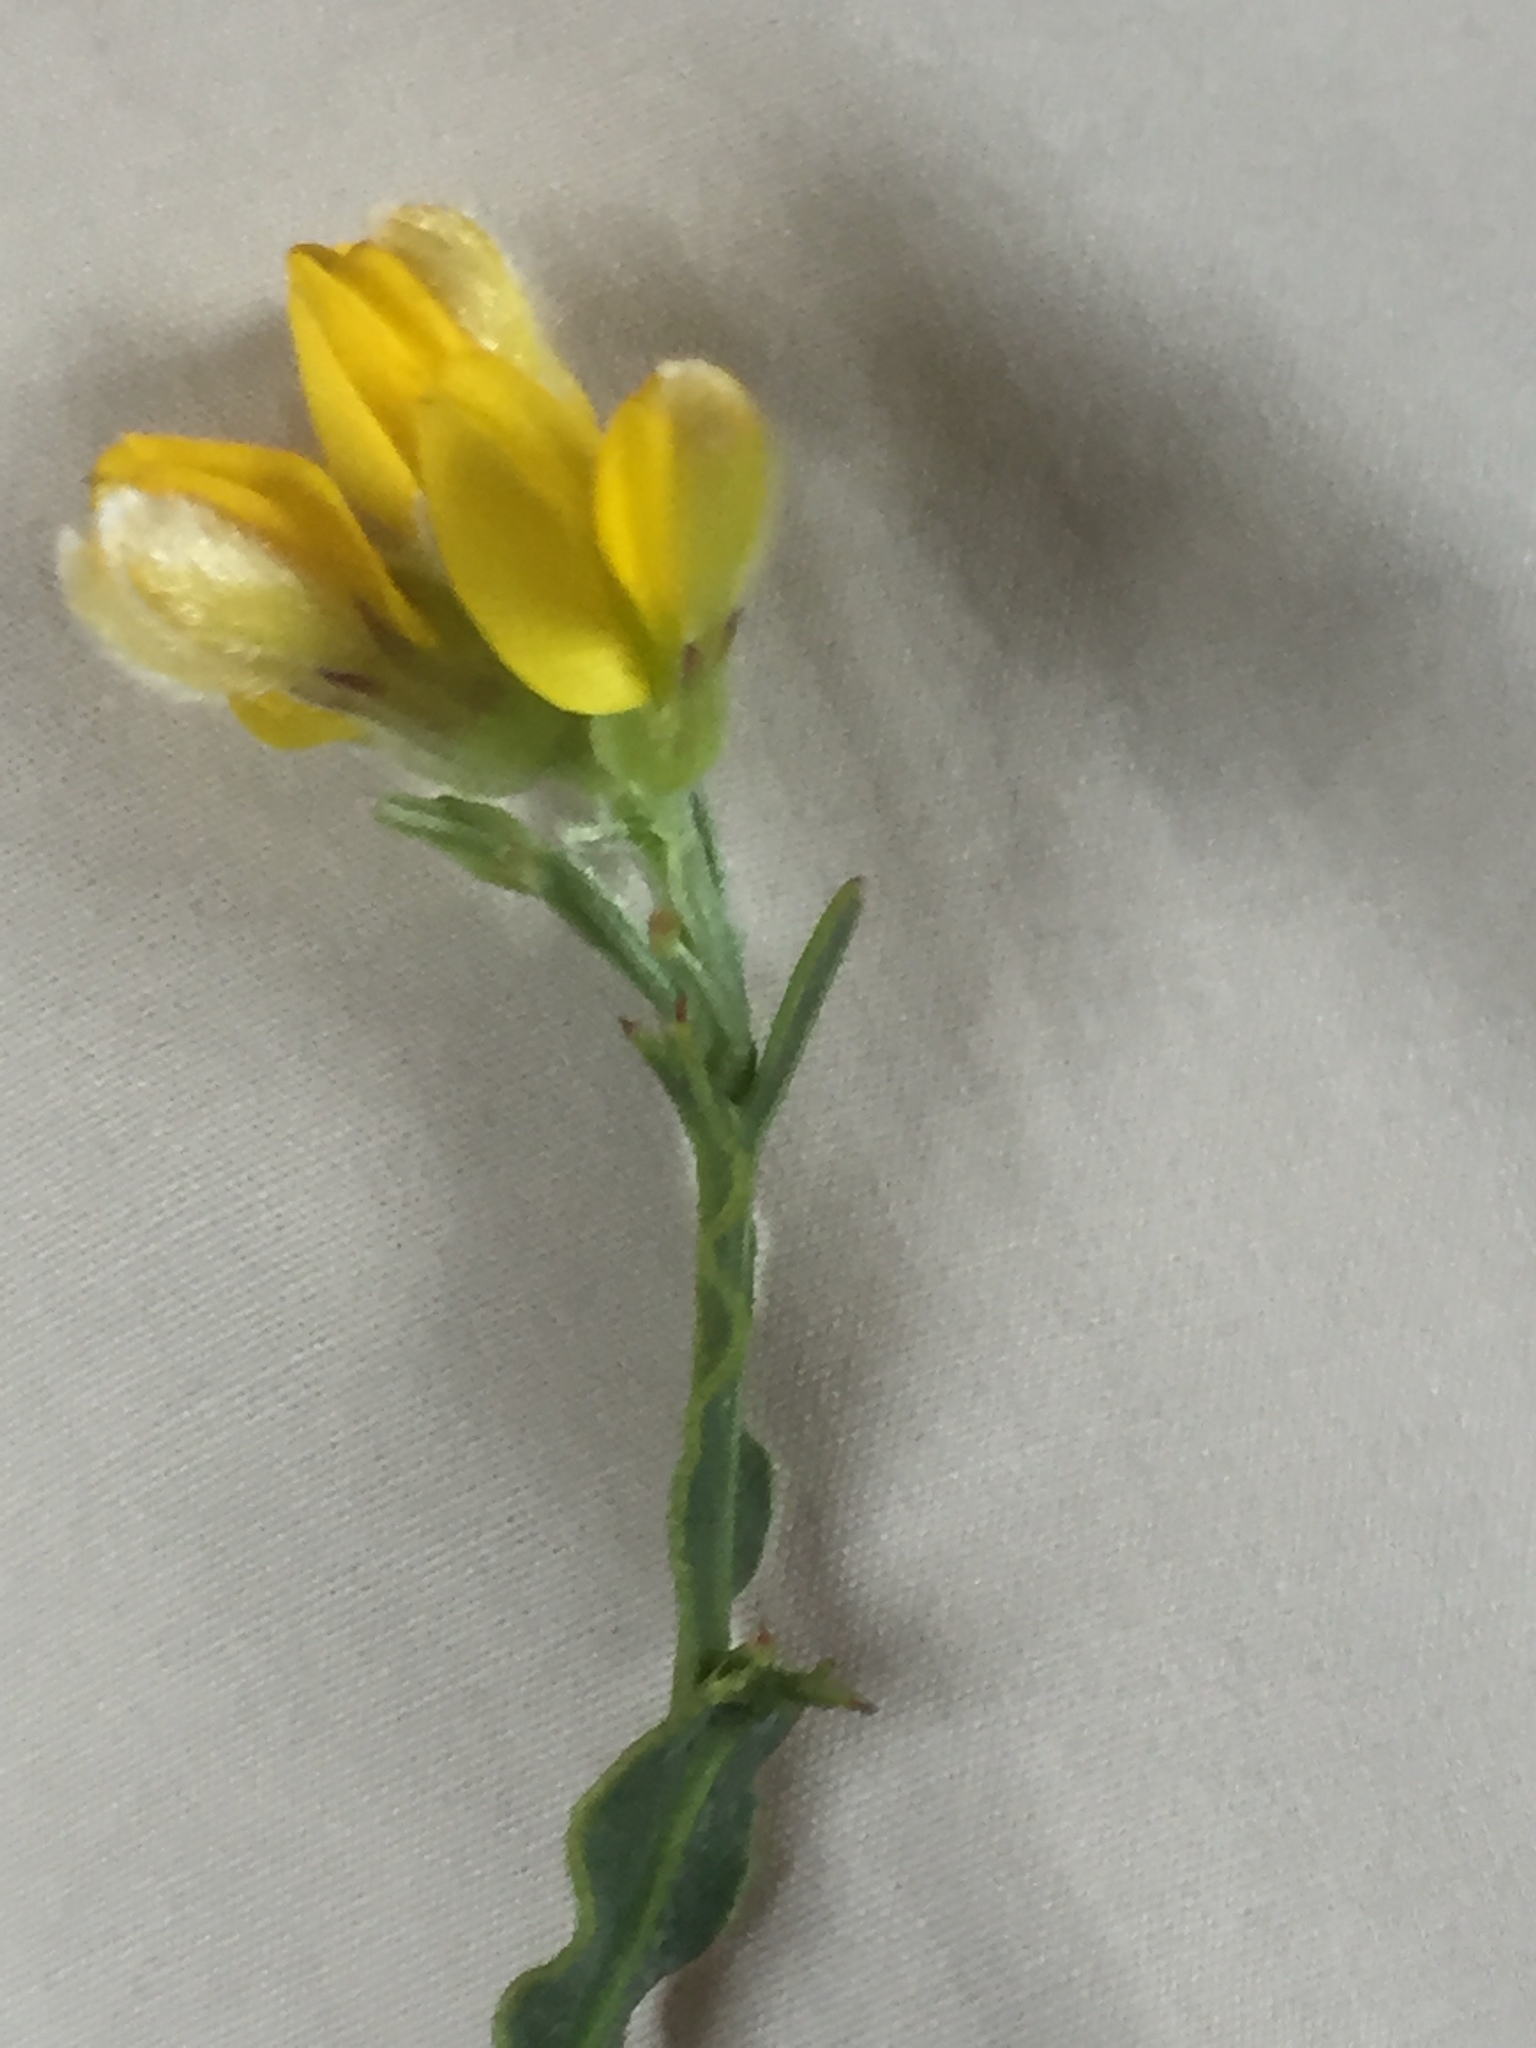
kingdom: Plantae
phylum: Tracheophyta
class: Magnoliopsida
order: Fabales
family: Fabaceae
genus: Genista
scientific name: Genista tridentata
